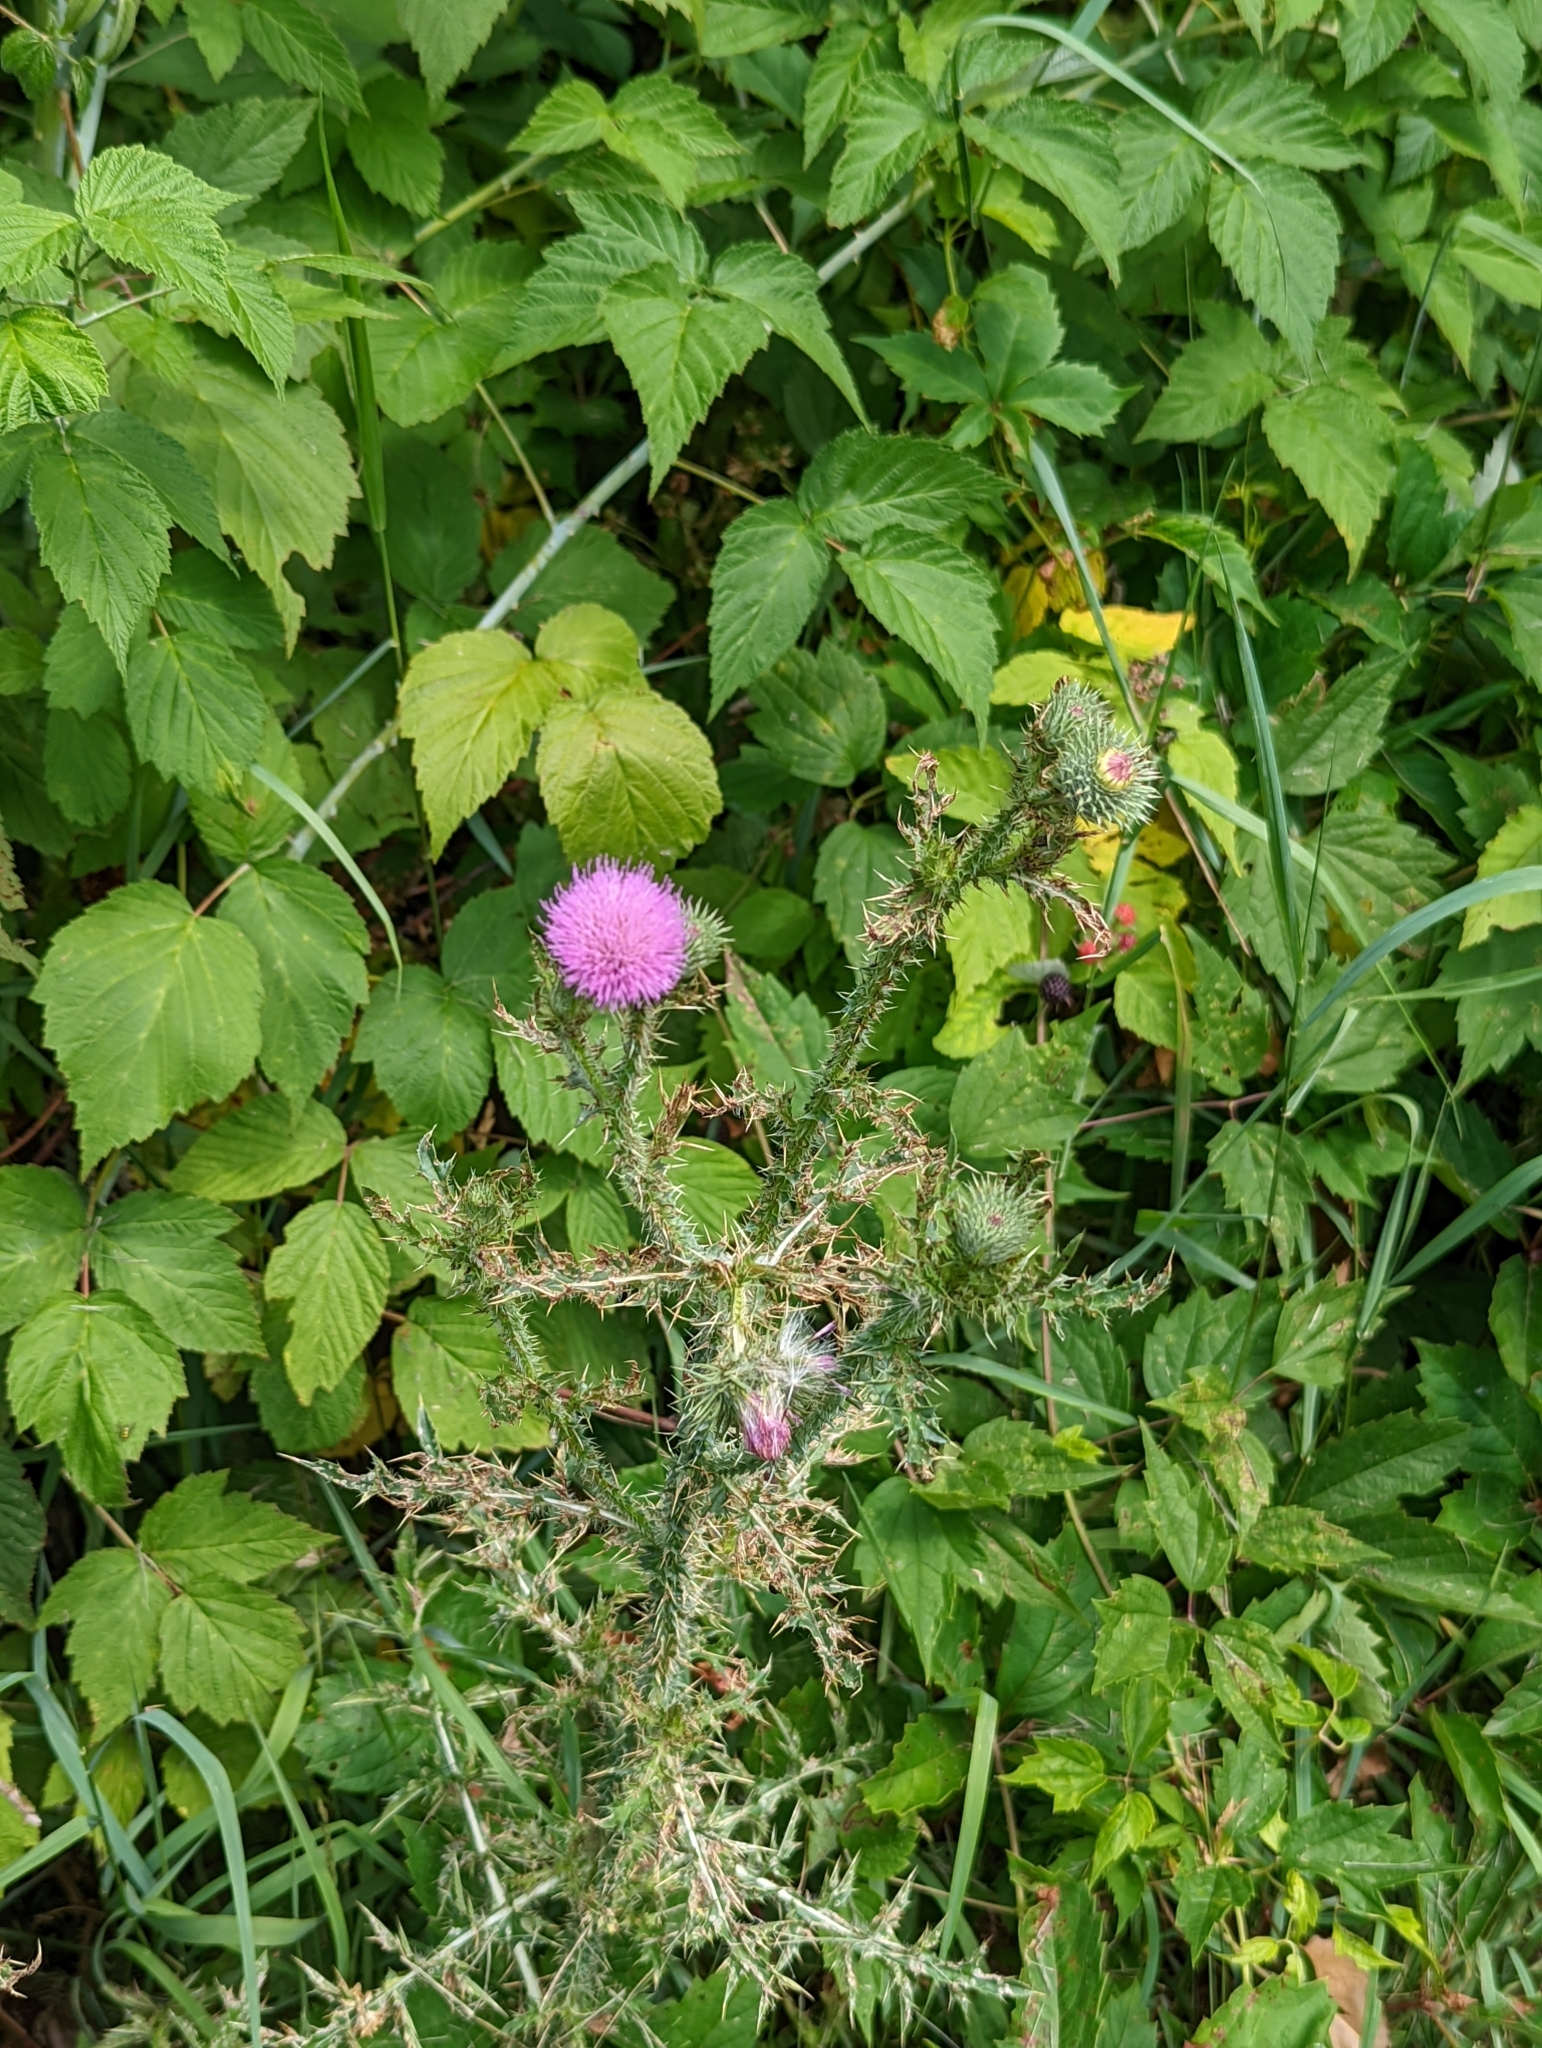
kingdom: Plantae
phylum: Tracheophyta
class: Magnoliopsida
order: Asterales
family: Asteraceae
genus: Carduus
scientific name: Carduus acanthoides
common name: Plumeless thistle
